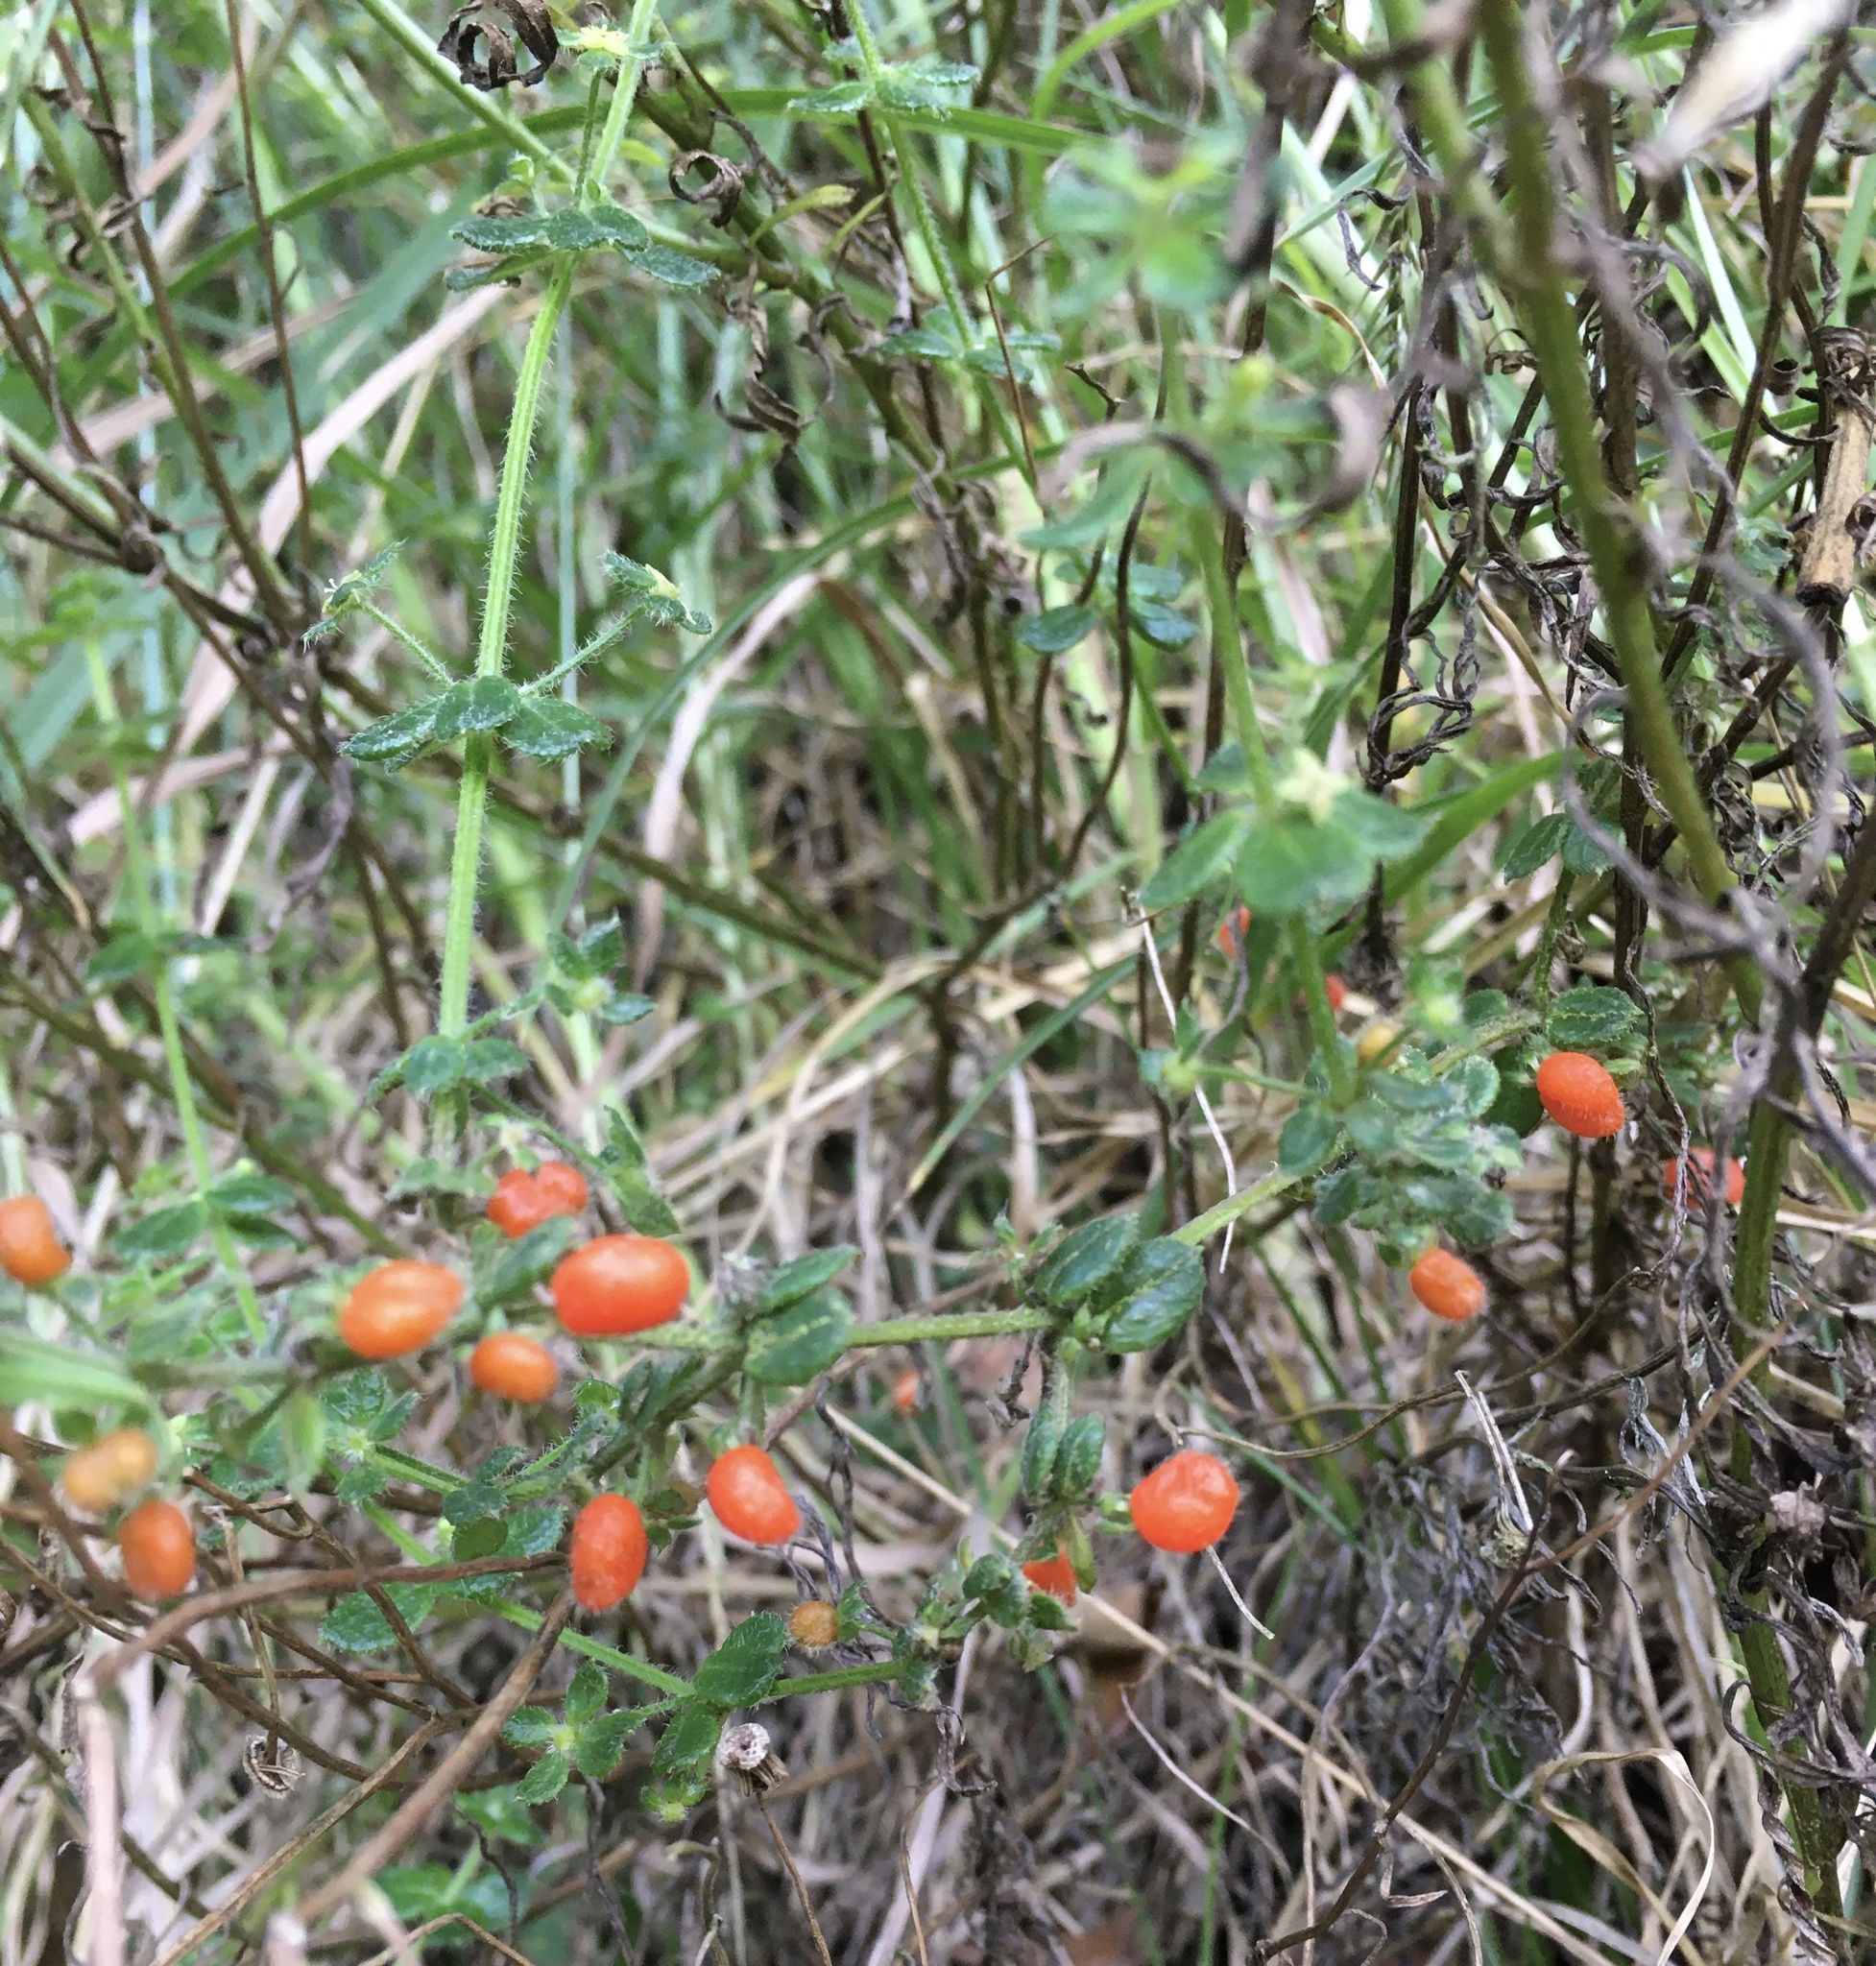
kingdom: Plantae
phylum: Tracheophyta
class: Magnoliopsida
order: Gentianales
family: Rubiaceae
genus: Galium
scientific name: Galium hypocarpium
